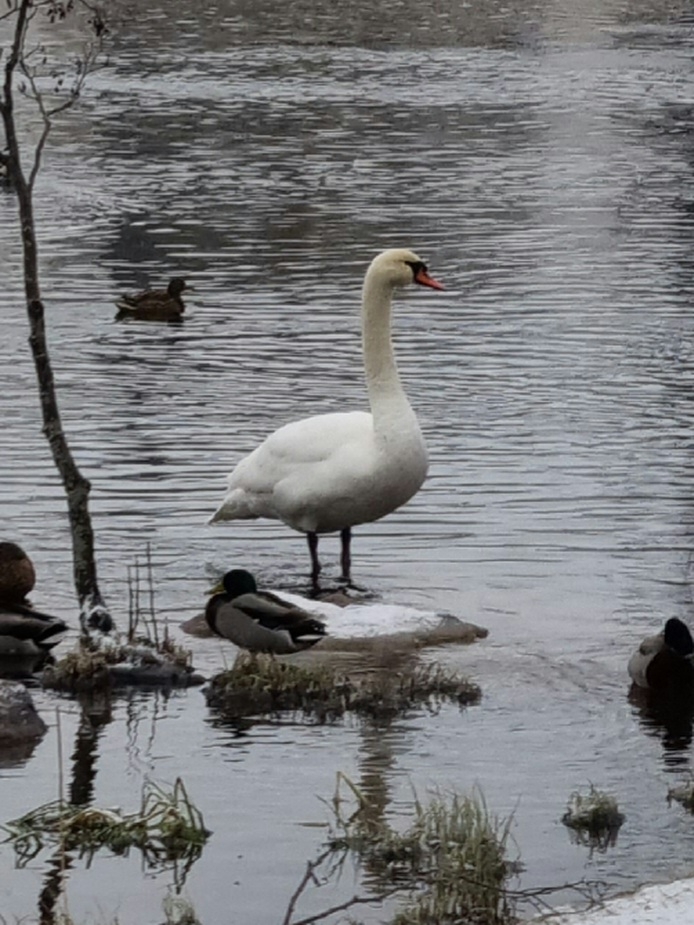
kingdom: Animalia
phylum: Chordata
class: Aves
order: Anseriformes
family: Anatidae
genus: Cygnus
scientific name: Cygnus olor
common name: Mute swan
